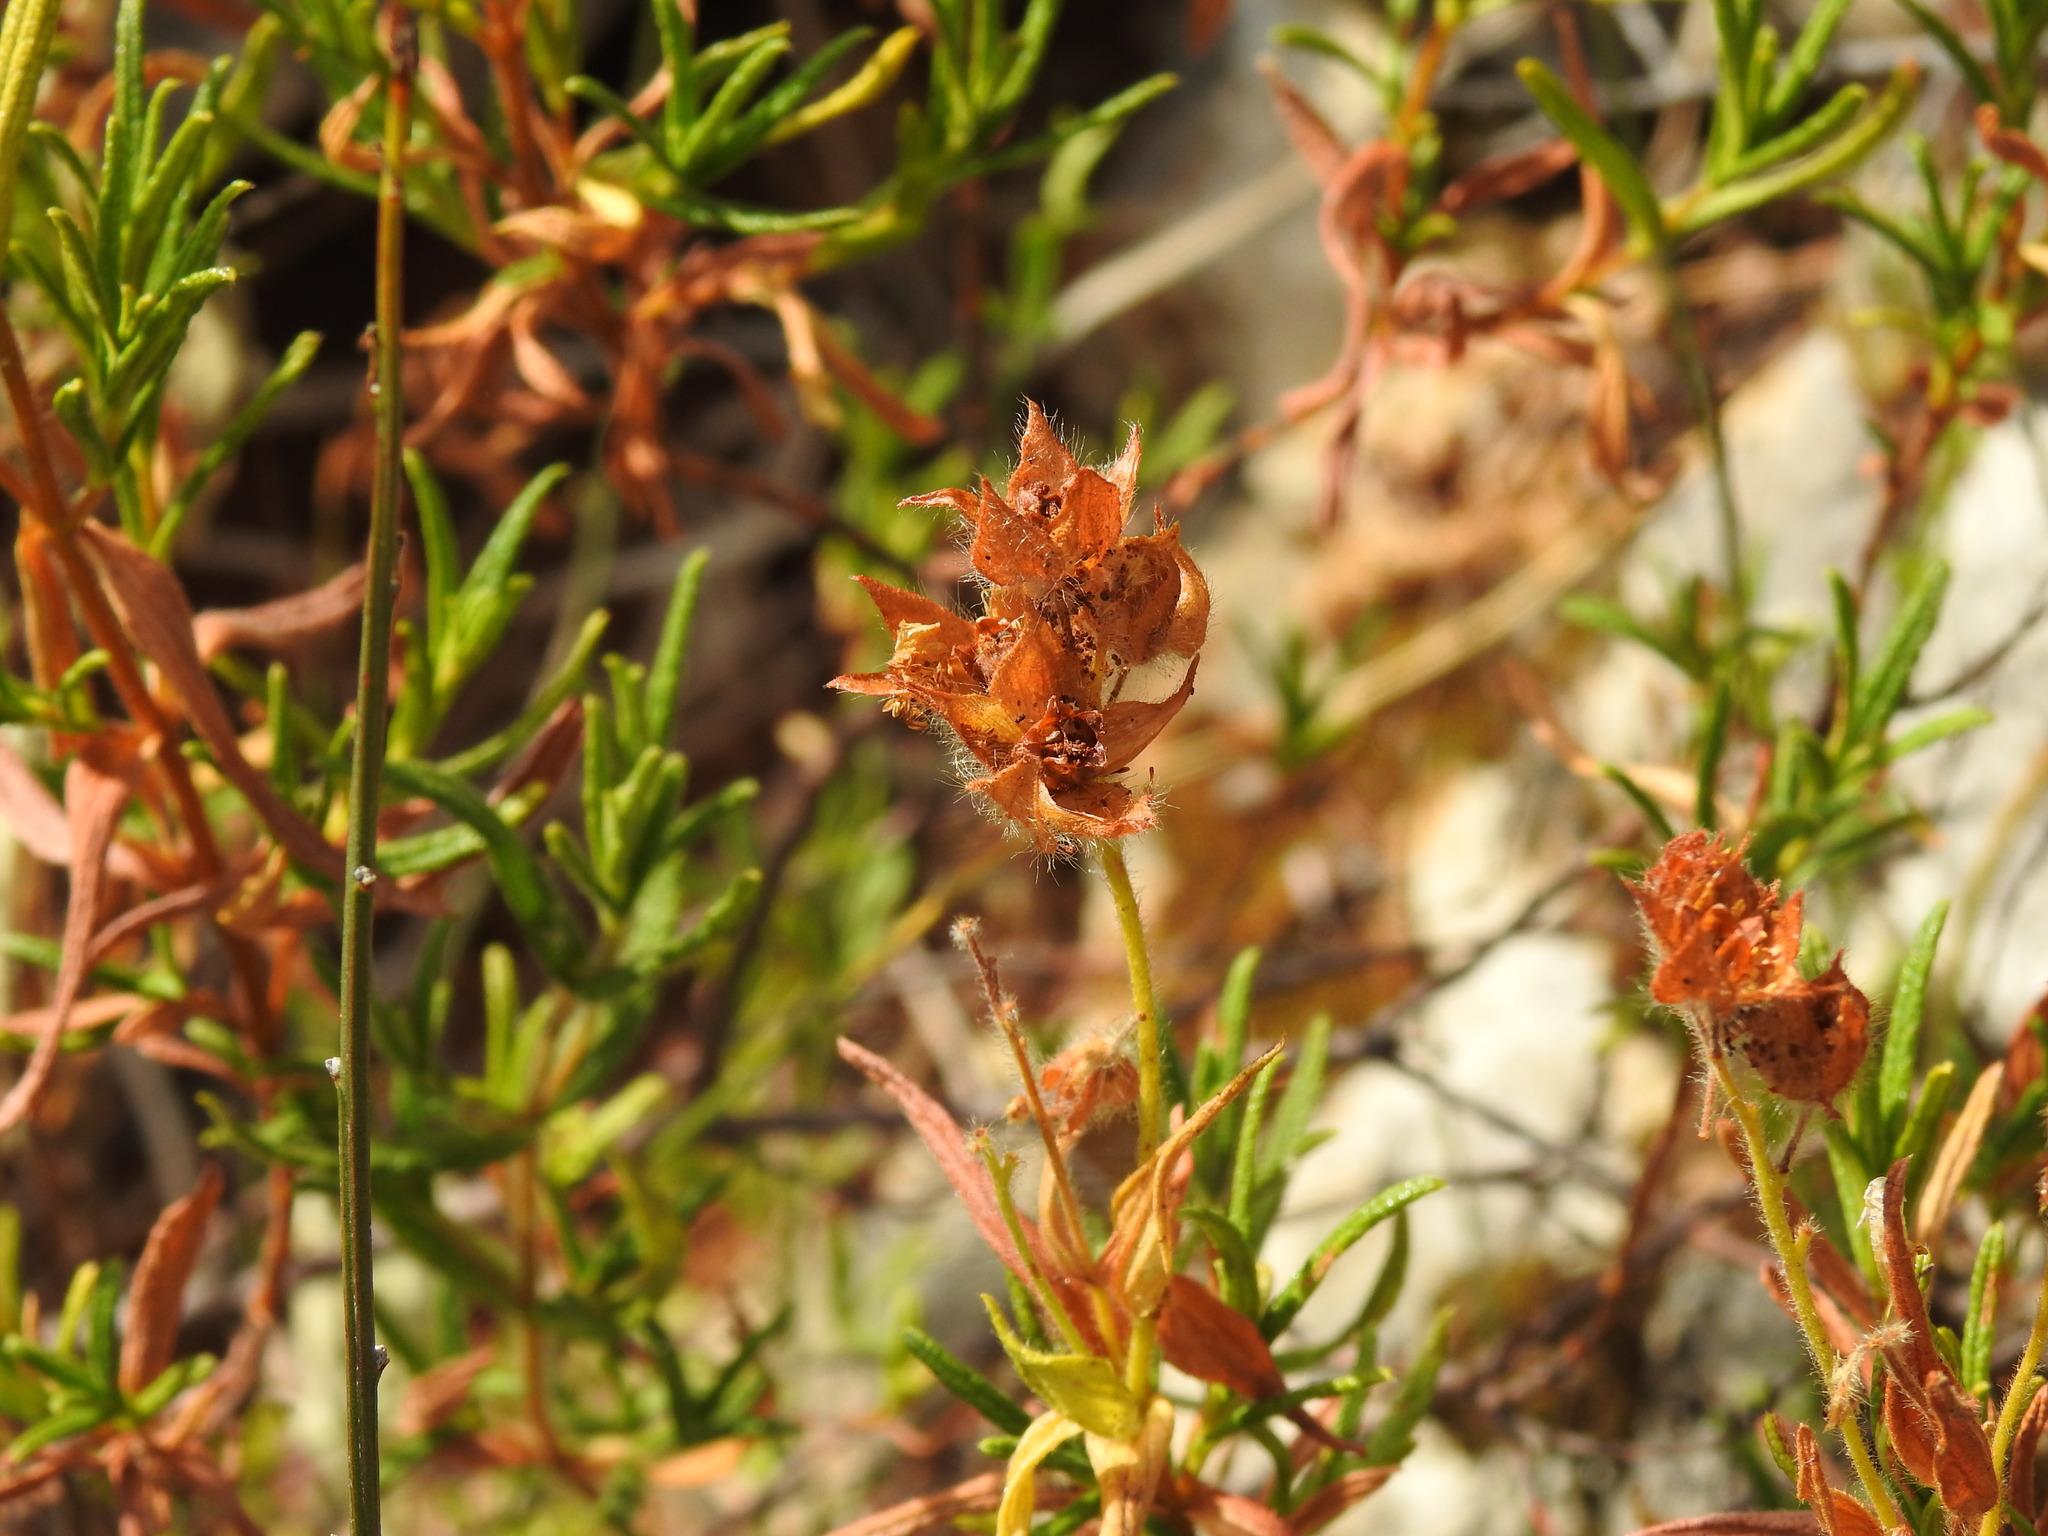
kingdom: Plantae
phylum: Tracheophyta
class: Magnoliopsida
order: Malvales
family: Cistaceae
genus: Cistus
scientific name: Cistus monspeliensis
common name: Montpelier cistus
